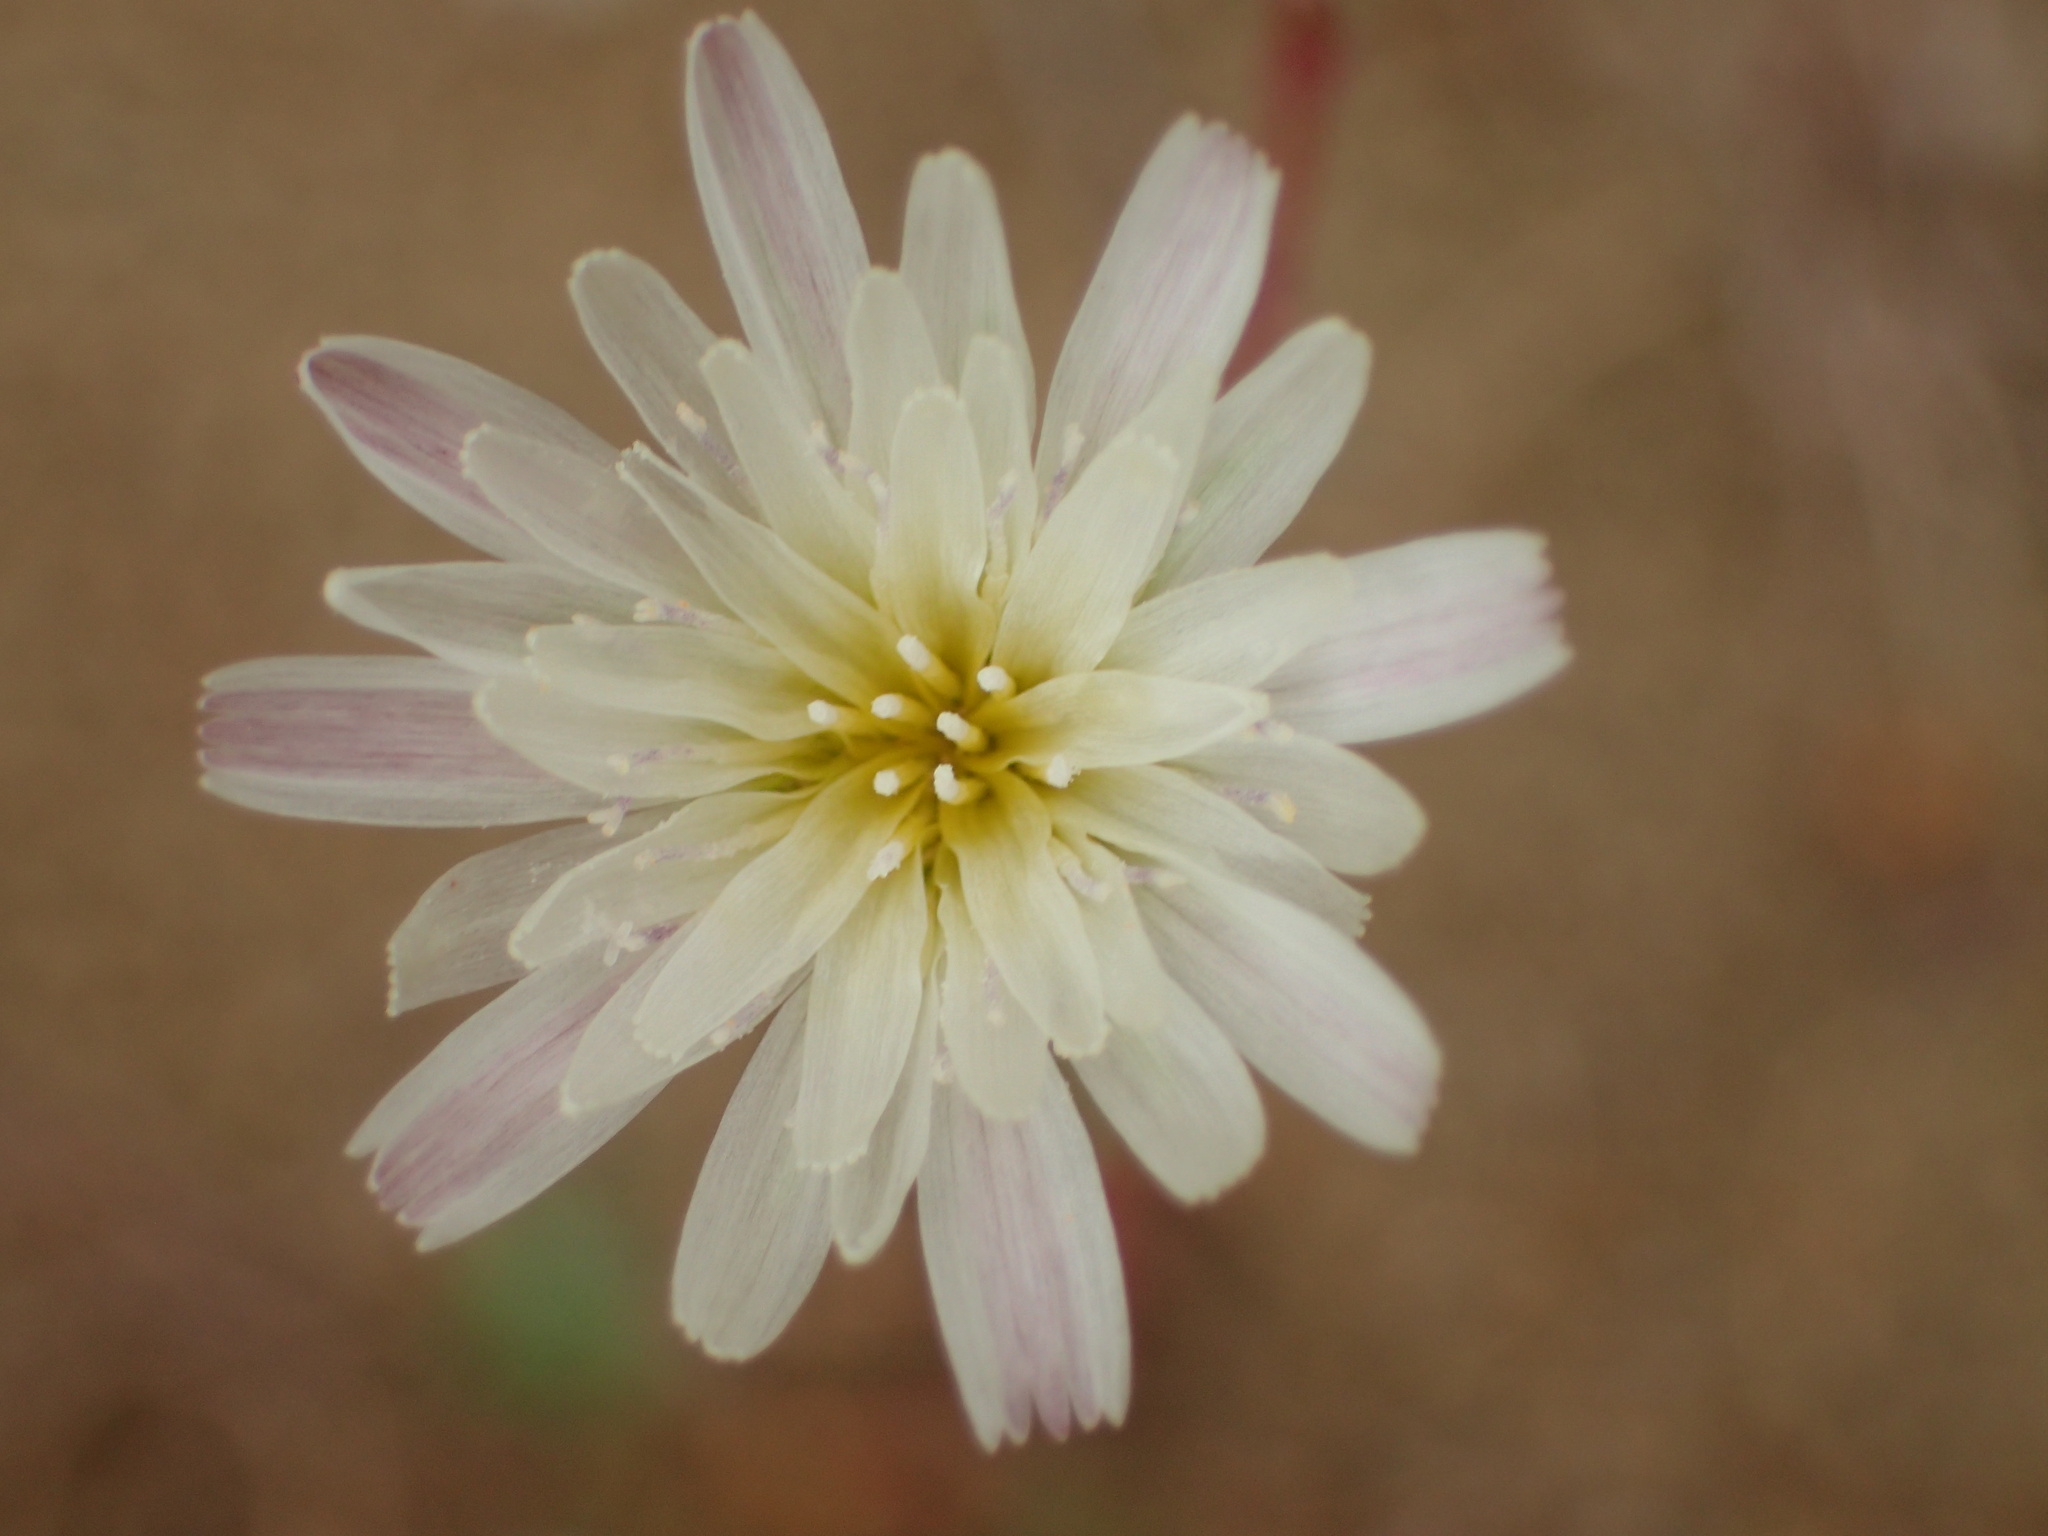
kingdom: Plantae
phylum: Tracheophyta
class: Magnoliopsida
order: Asterales
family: Asteraceae
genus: Rafinesquia
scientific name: Rafinesquia californica
